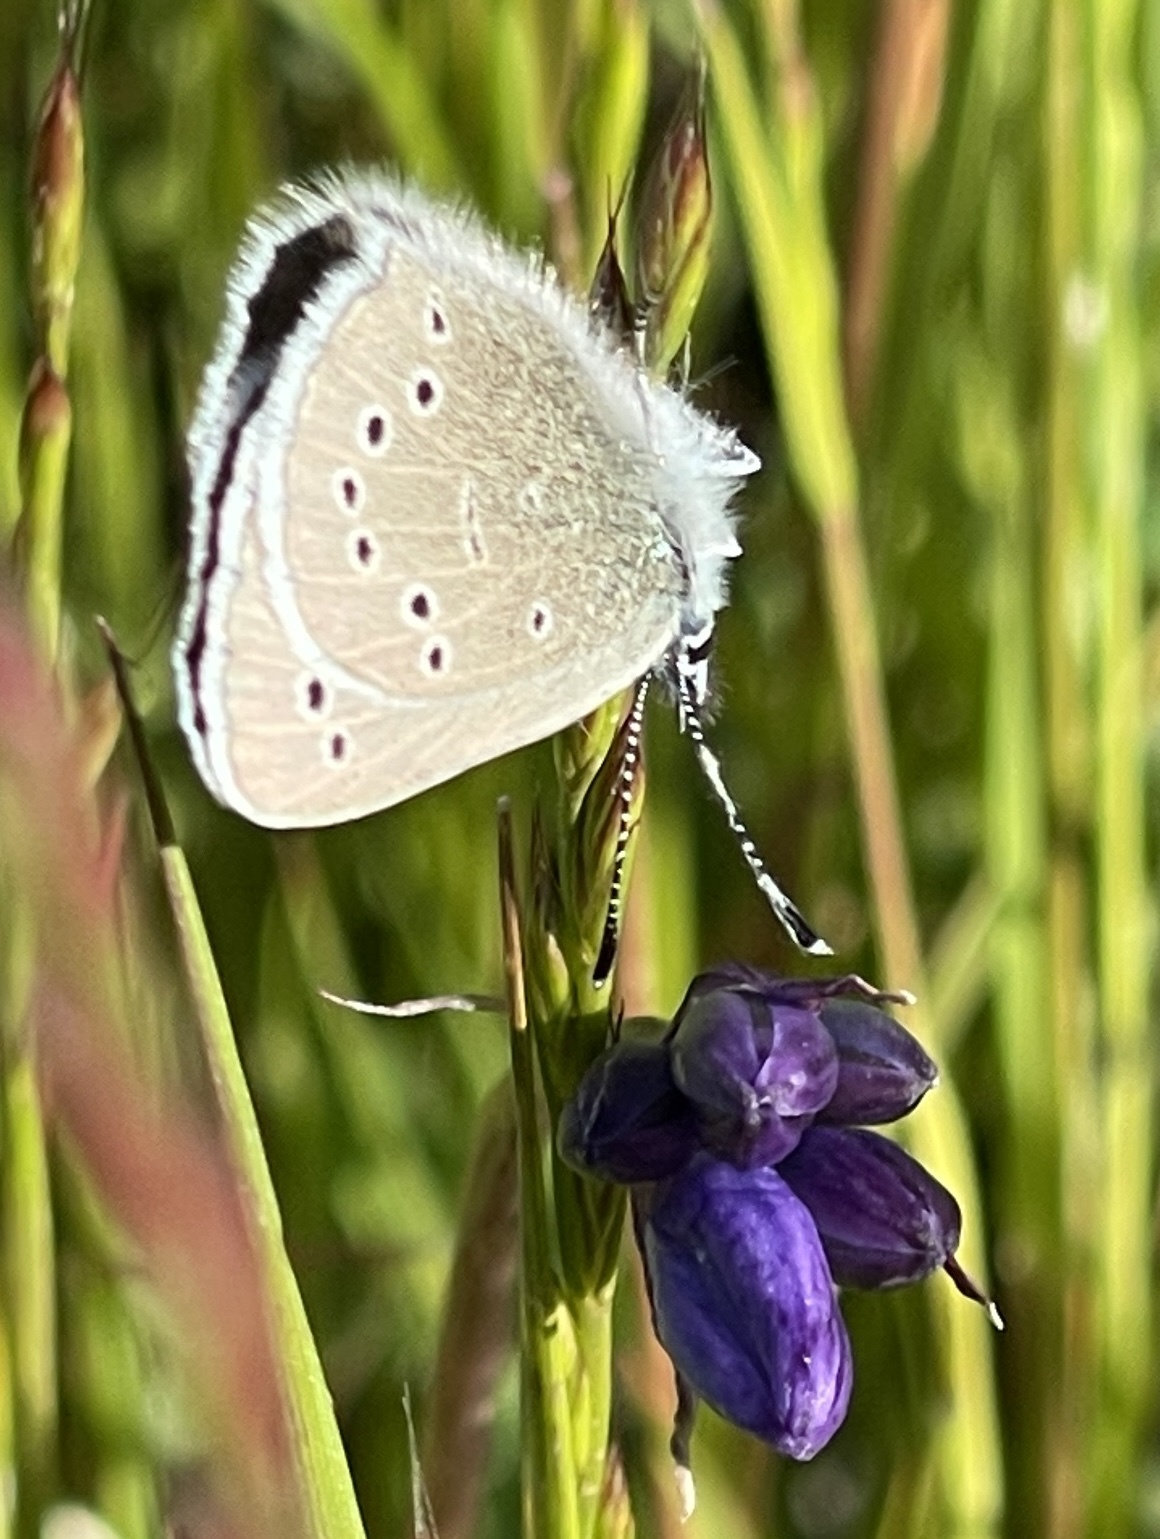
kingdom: Animalia
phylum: Arthropoda
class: Insecta
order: Lepidoptera
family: Lycaenidae
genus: Glaucopsyche
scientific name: Glaucopsyche lygdamus
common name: Silvery blue
